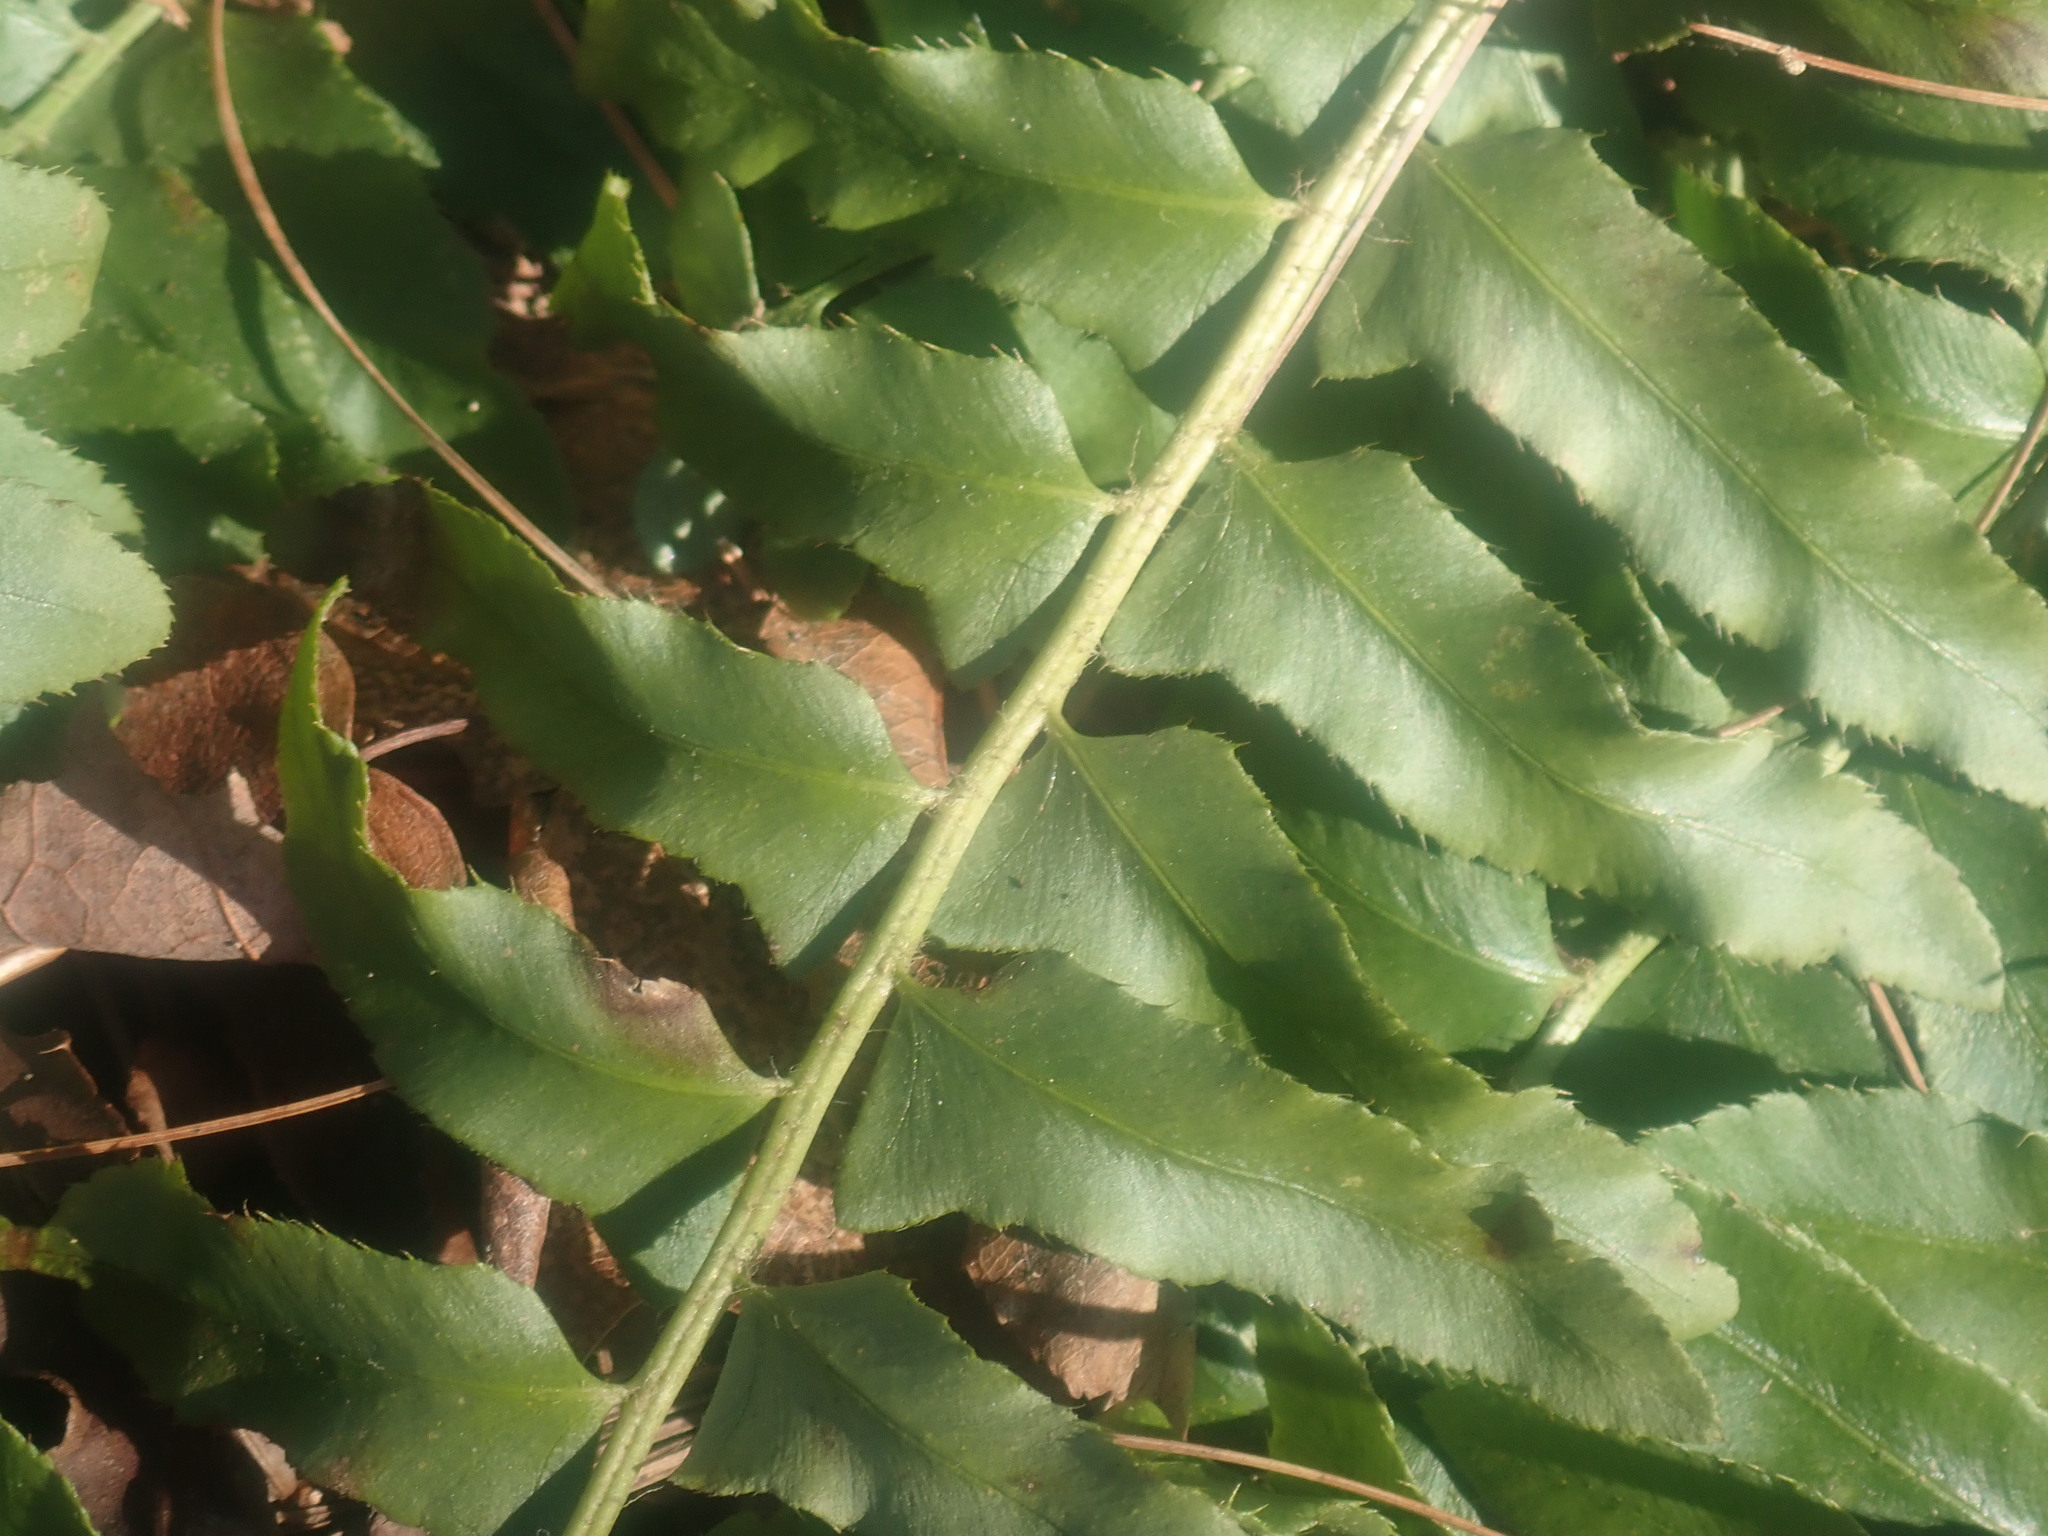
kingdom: Plantae
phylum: Tracheophyta
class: Polypodiopsida
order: Polypodiales
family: Dryopteridaceae
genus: Polystichum
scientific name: Polystichum acrostichoides
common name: Christmas fern
